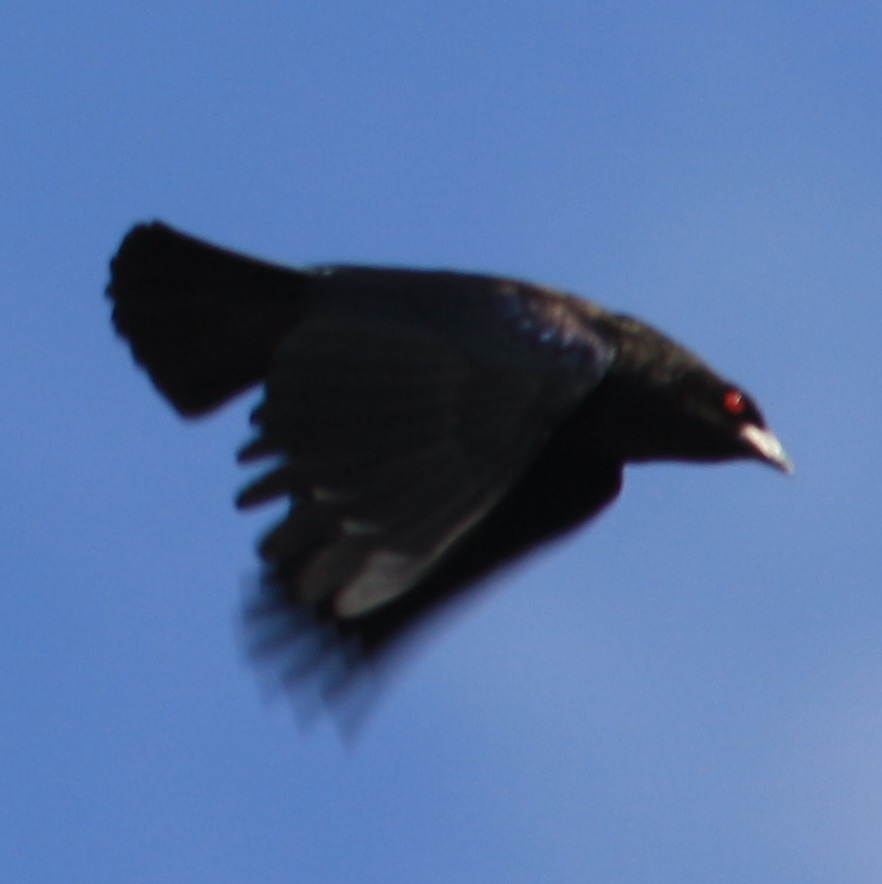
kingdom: Animalia
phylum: Chordata
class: Aves
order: Passeriformes
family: Icteridae
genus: Molothrus
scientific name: Molothrus aeneus
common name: Bronzed cowbird
